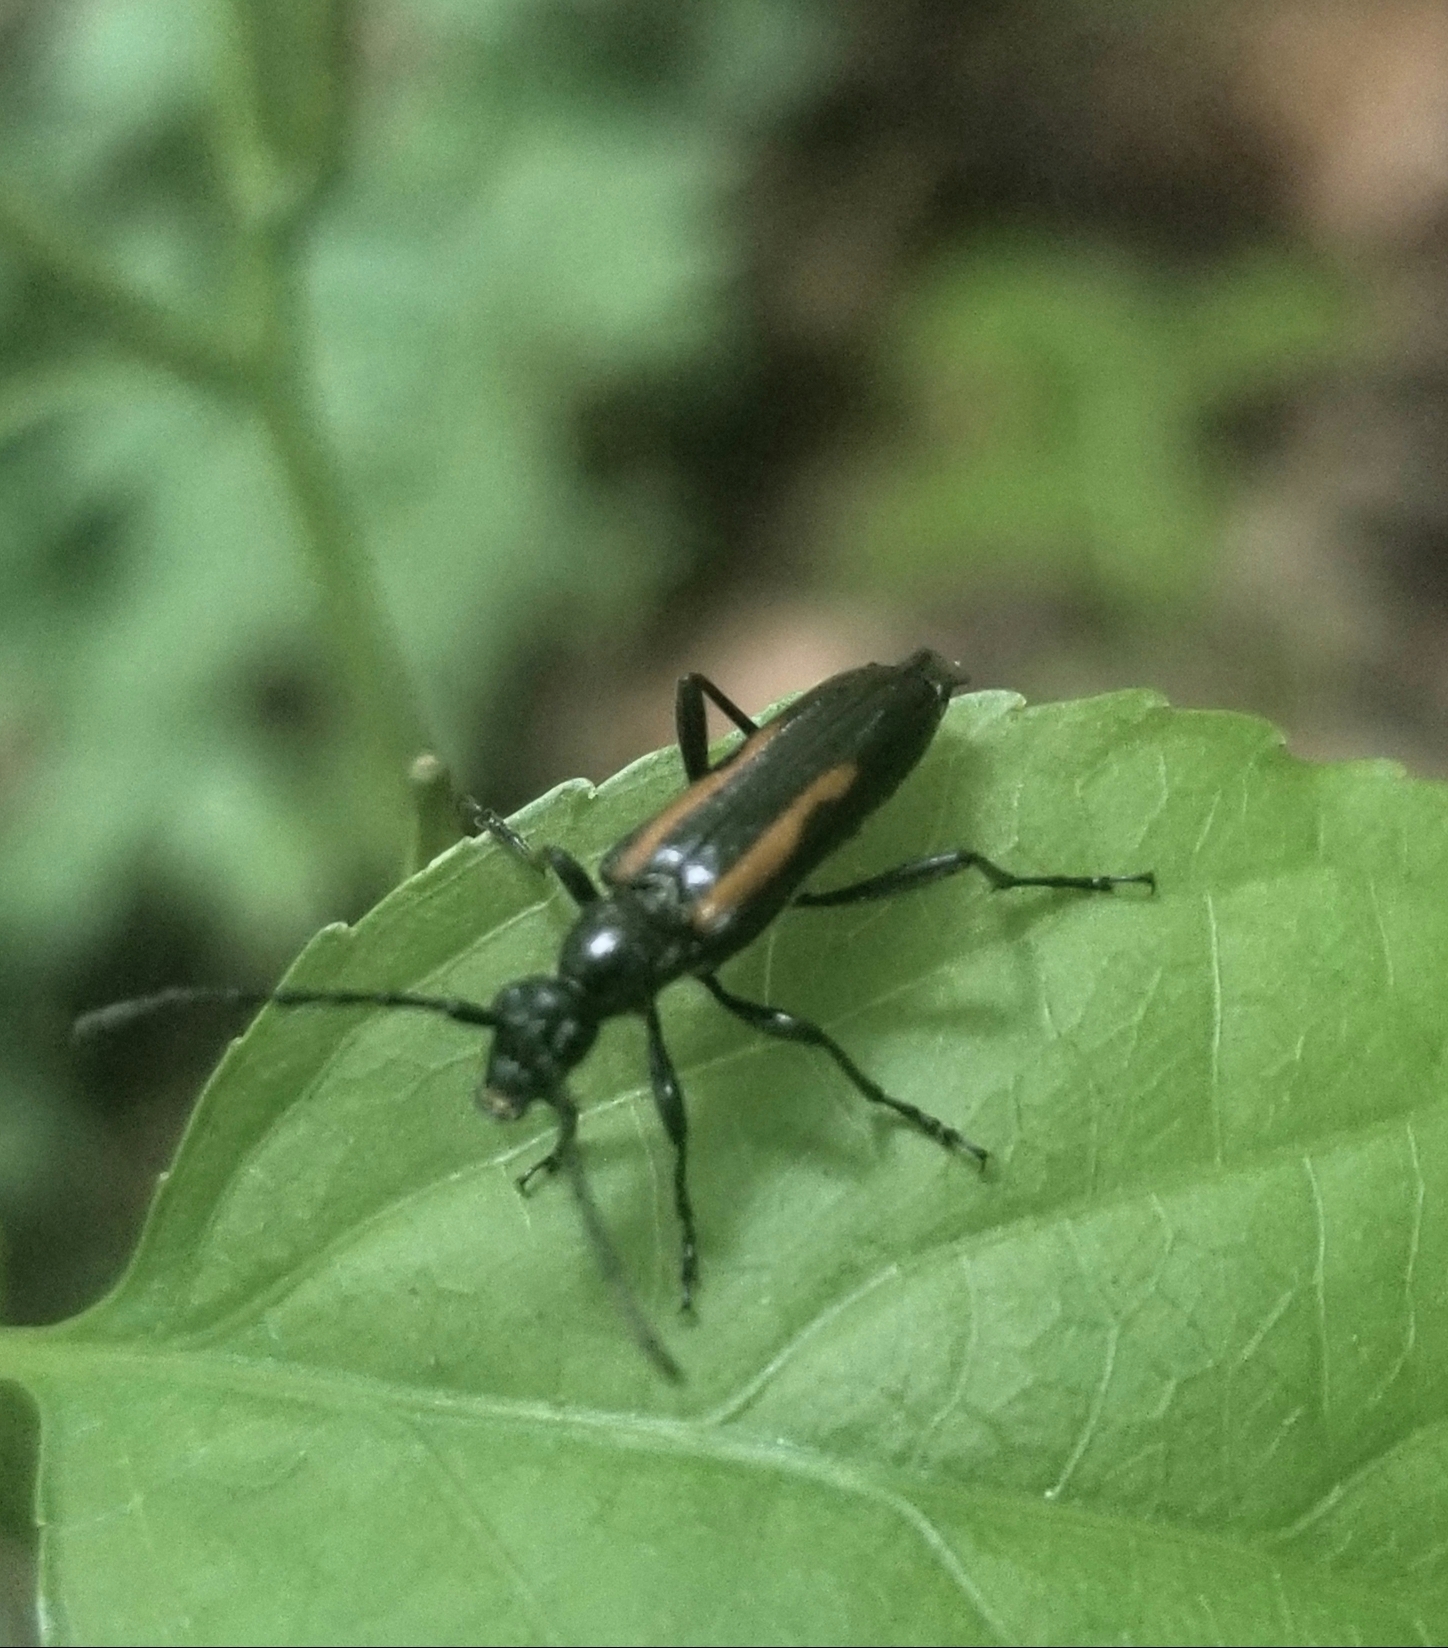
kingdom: Animalia
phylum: Arthropoda
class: Insecta
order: Coleoptera
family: Cerambycidae
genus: Strangalepta
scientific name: Strangalepta abbreviata
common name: Strangalepta flower longhorn beetle
